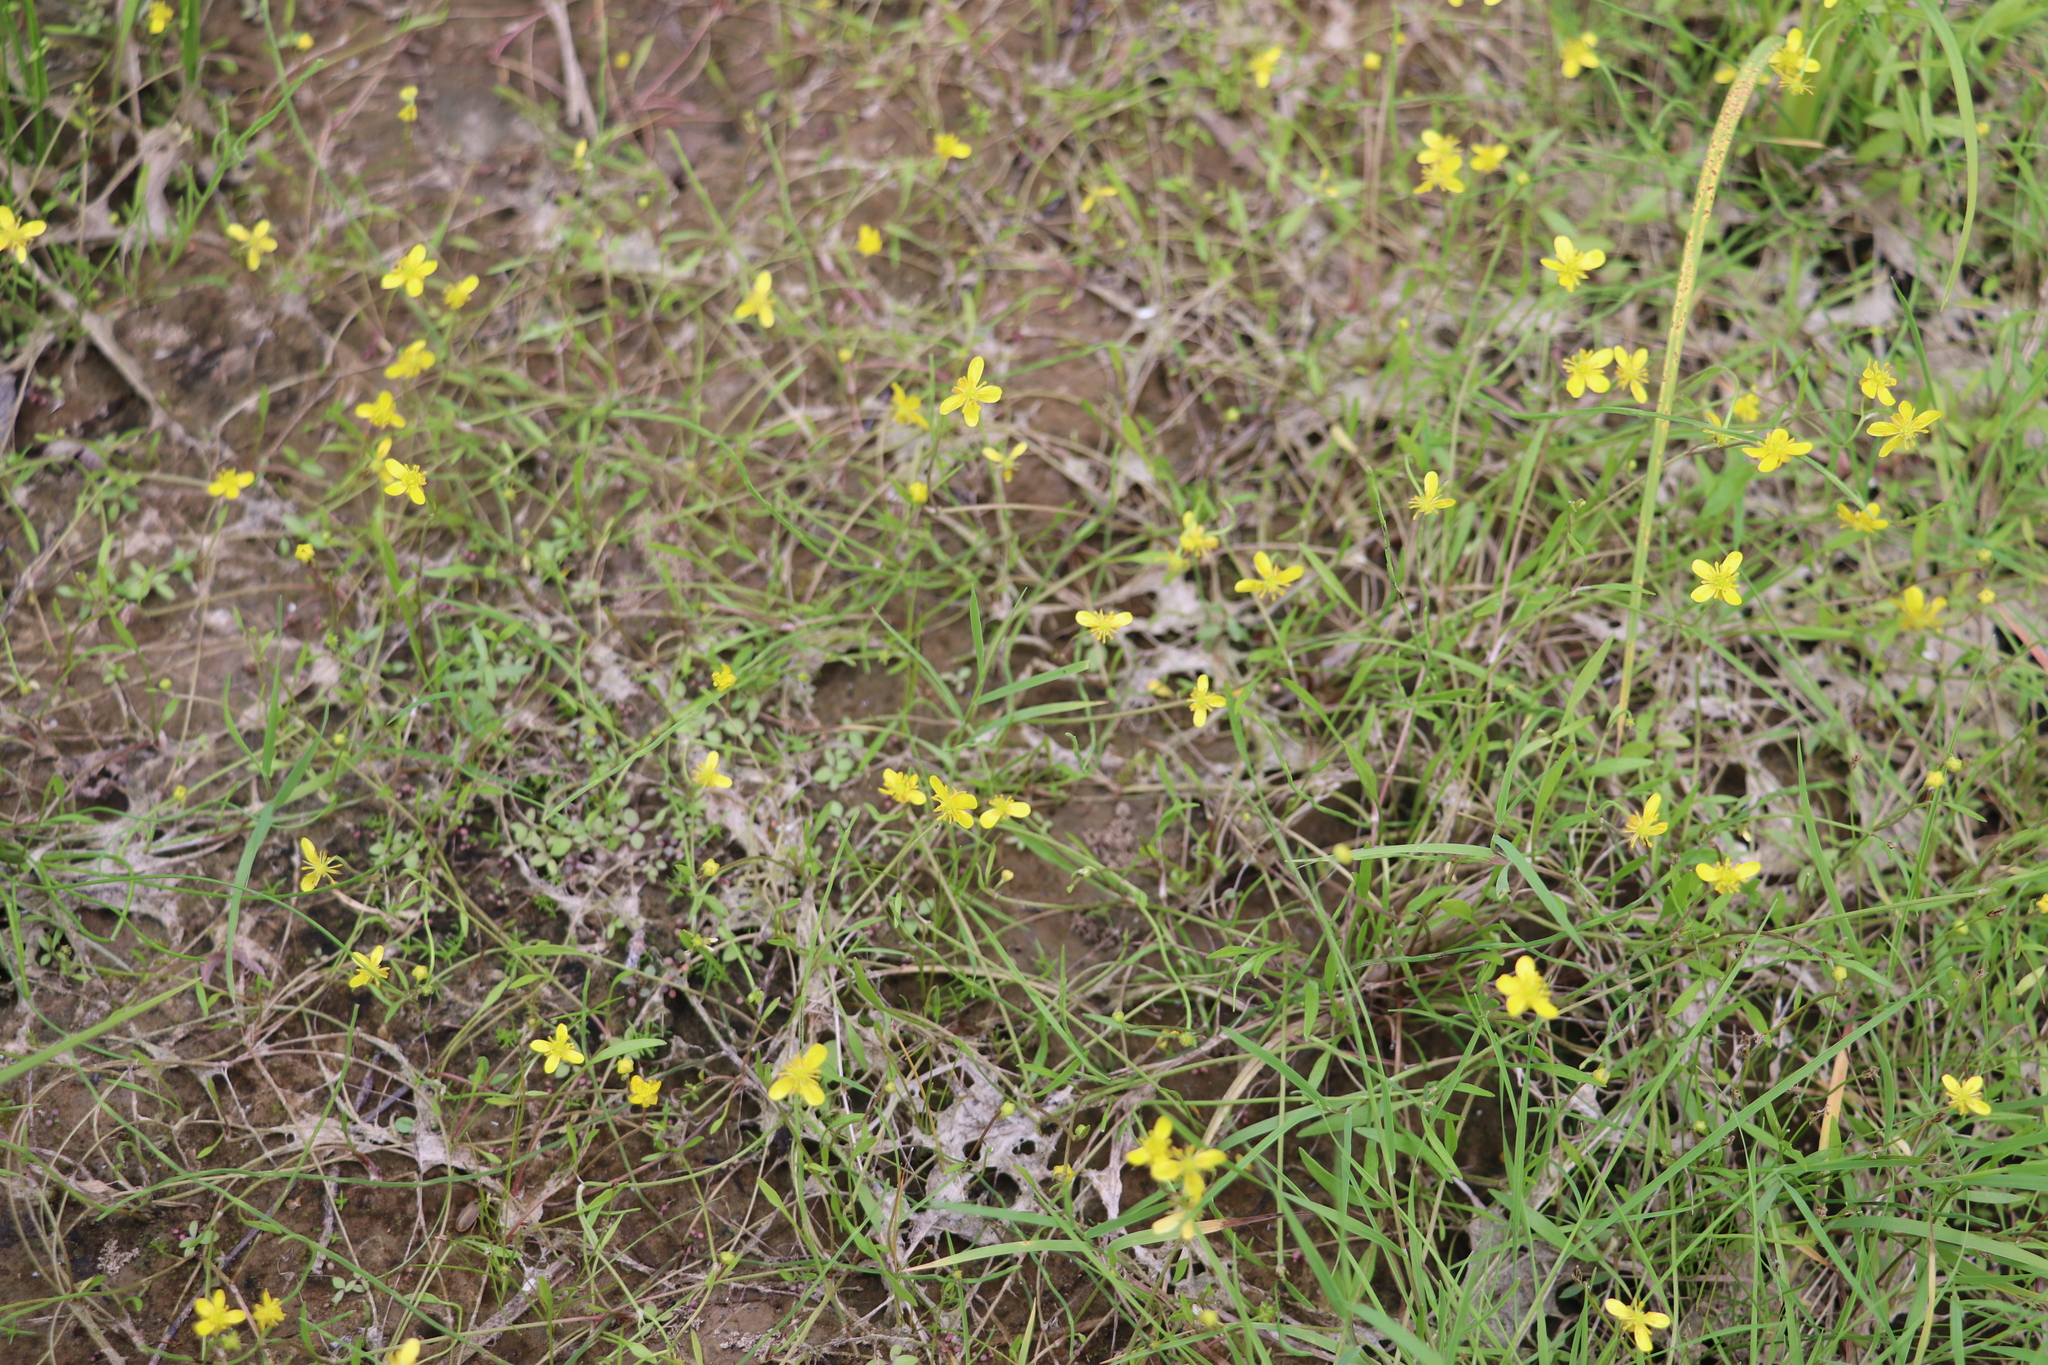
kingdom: Plantae
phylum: Tracheophyta
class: Magnoliopsida
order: Ranunculales
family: Ranunculaceae
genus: Ranunculus
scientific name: Ranunculus reptans
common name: Creeping spearwort
